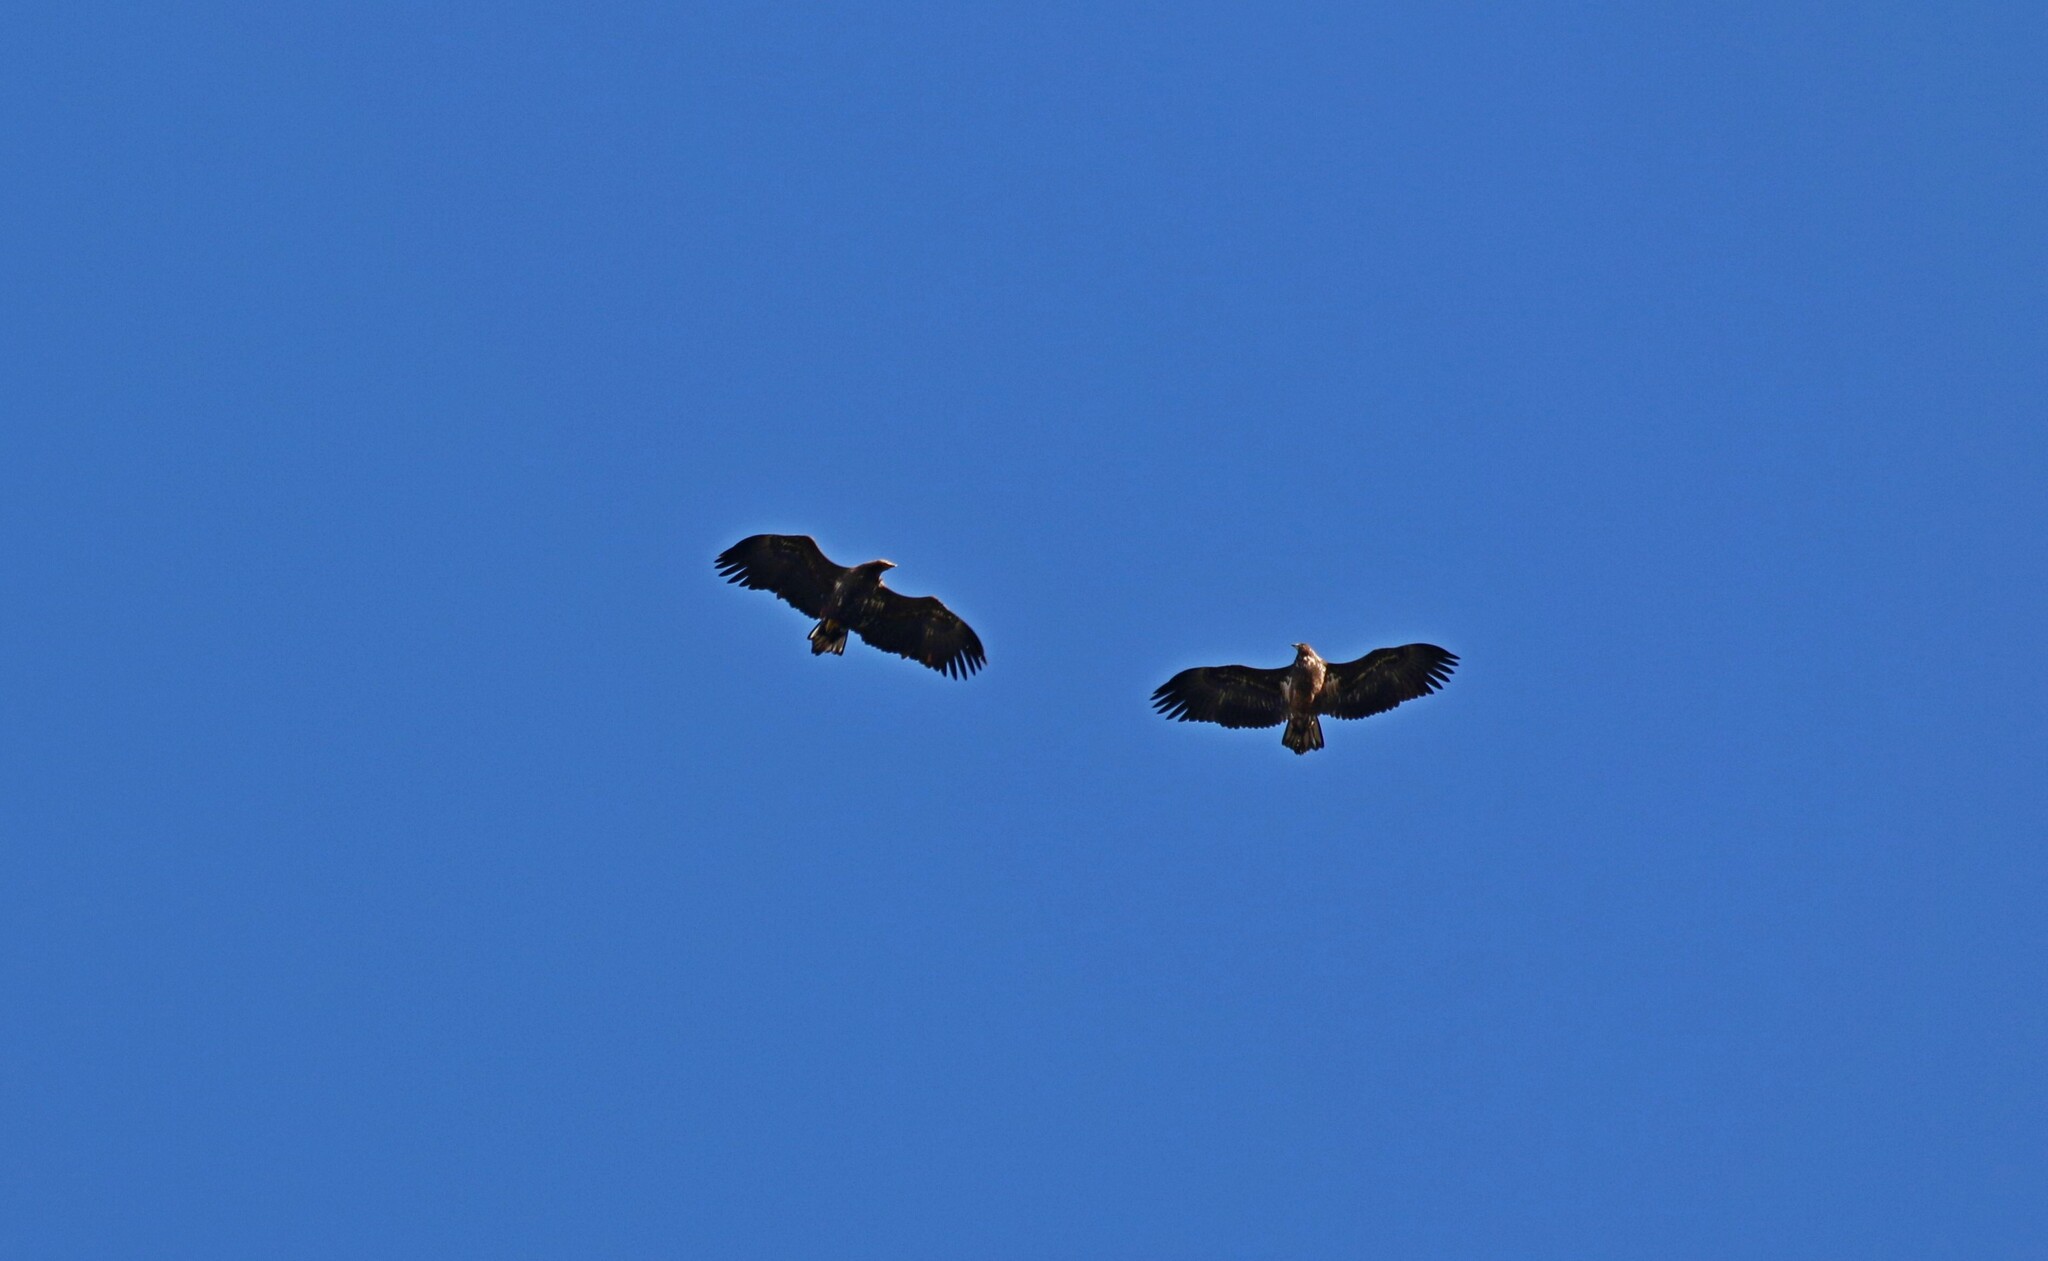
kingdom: Animalia
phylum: Chordata
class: Aves
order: Accipitriformes
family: Accipitridae
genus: Haliaeetus
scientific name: Haliaeetus albicilla
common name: White-tailed eagle
